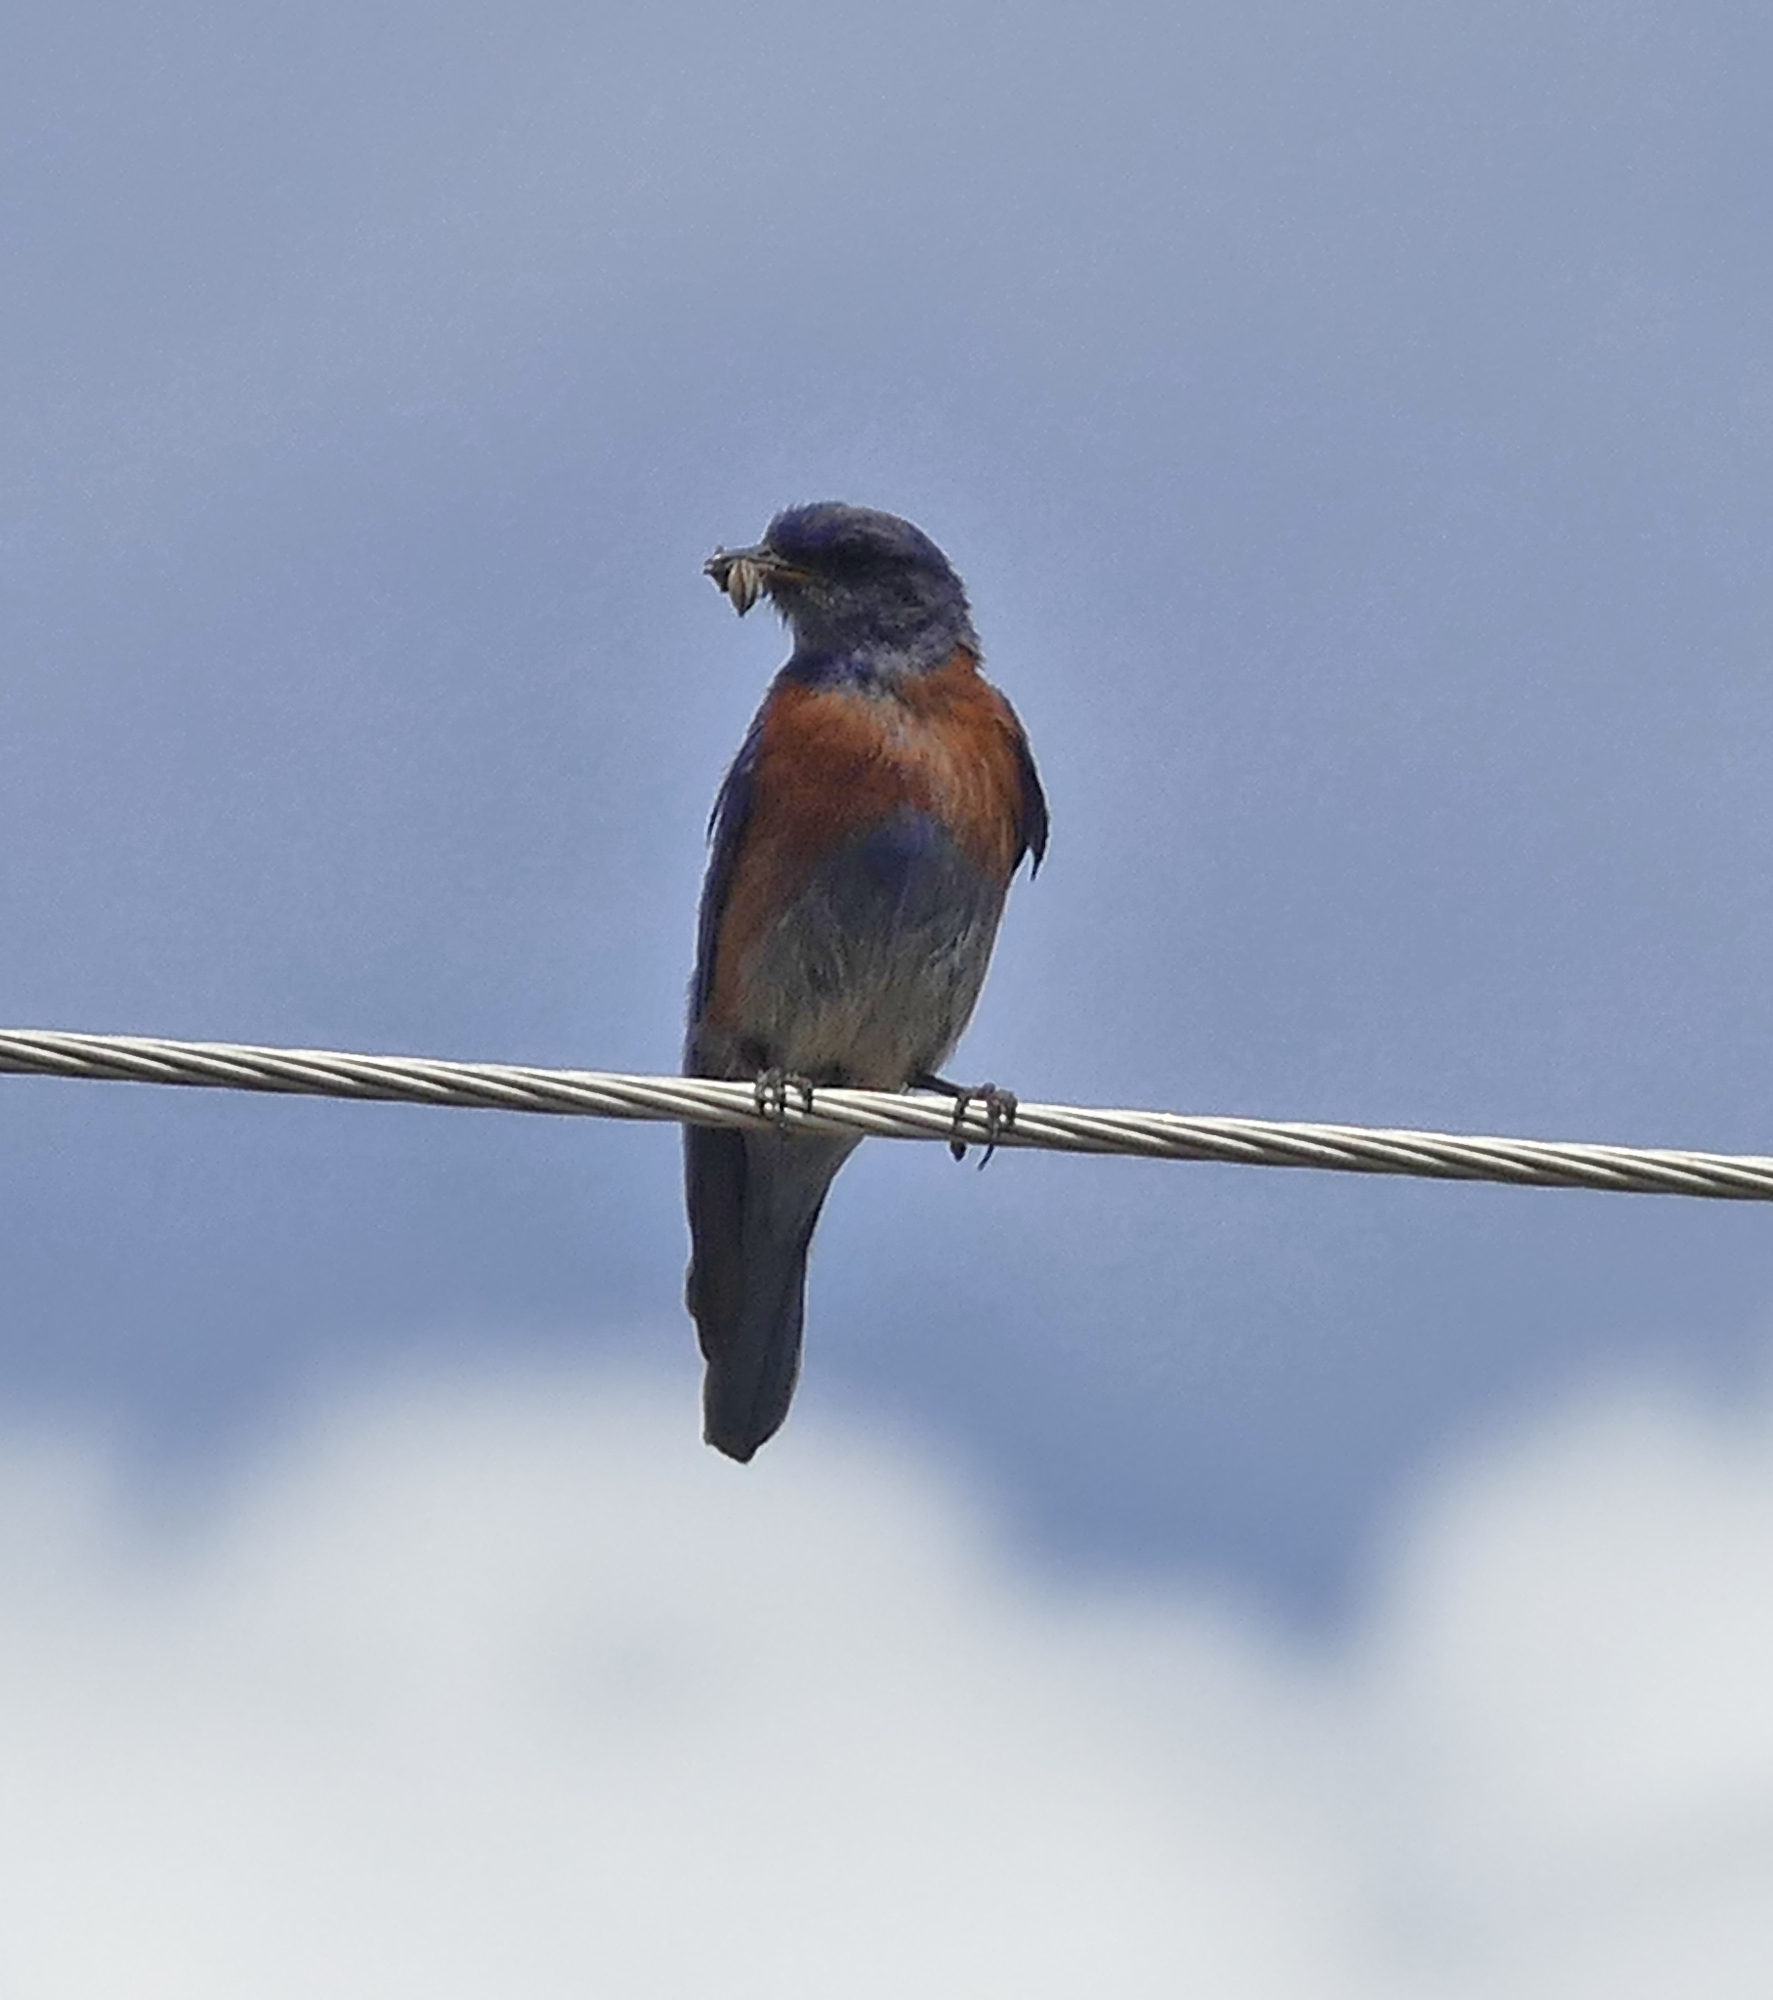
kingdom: Animalia
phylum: Chordata
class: Aves
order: Passeriformes
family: Turdidae
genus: Sialia
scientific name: Sialia mexicana
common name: Western bluebird
